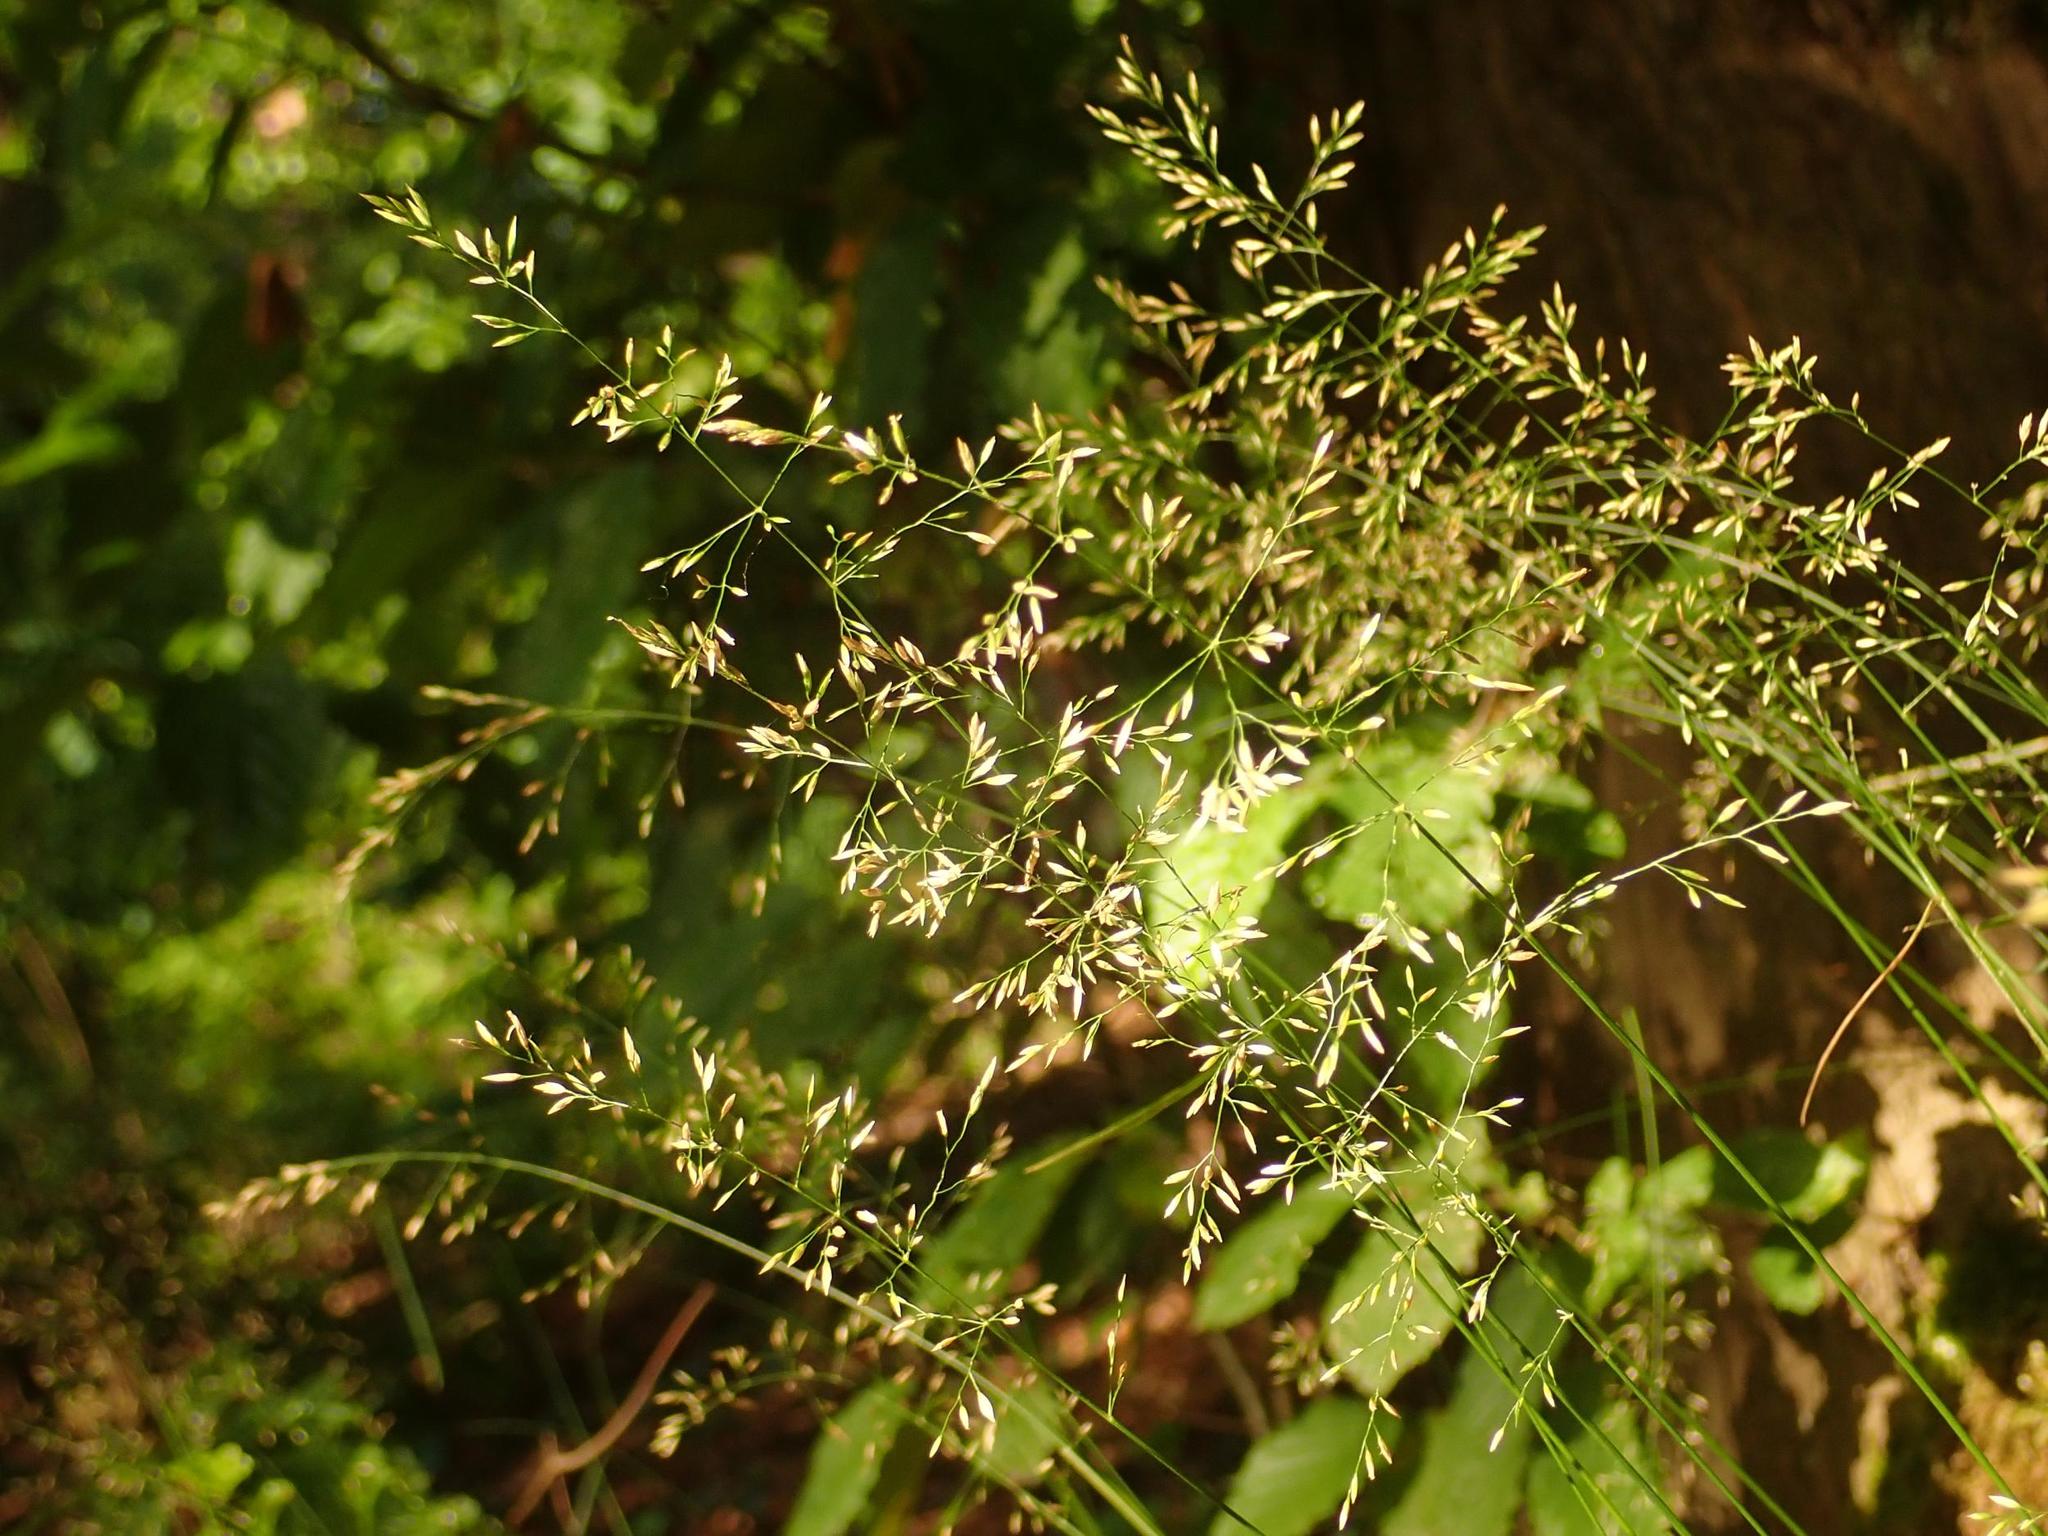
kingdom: Plantae
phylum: Tracheophyta
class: Liliopsida
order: Poales
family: Poaceae
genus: Poa
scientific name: Poa nemoralis
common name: Wood bluegrass
